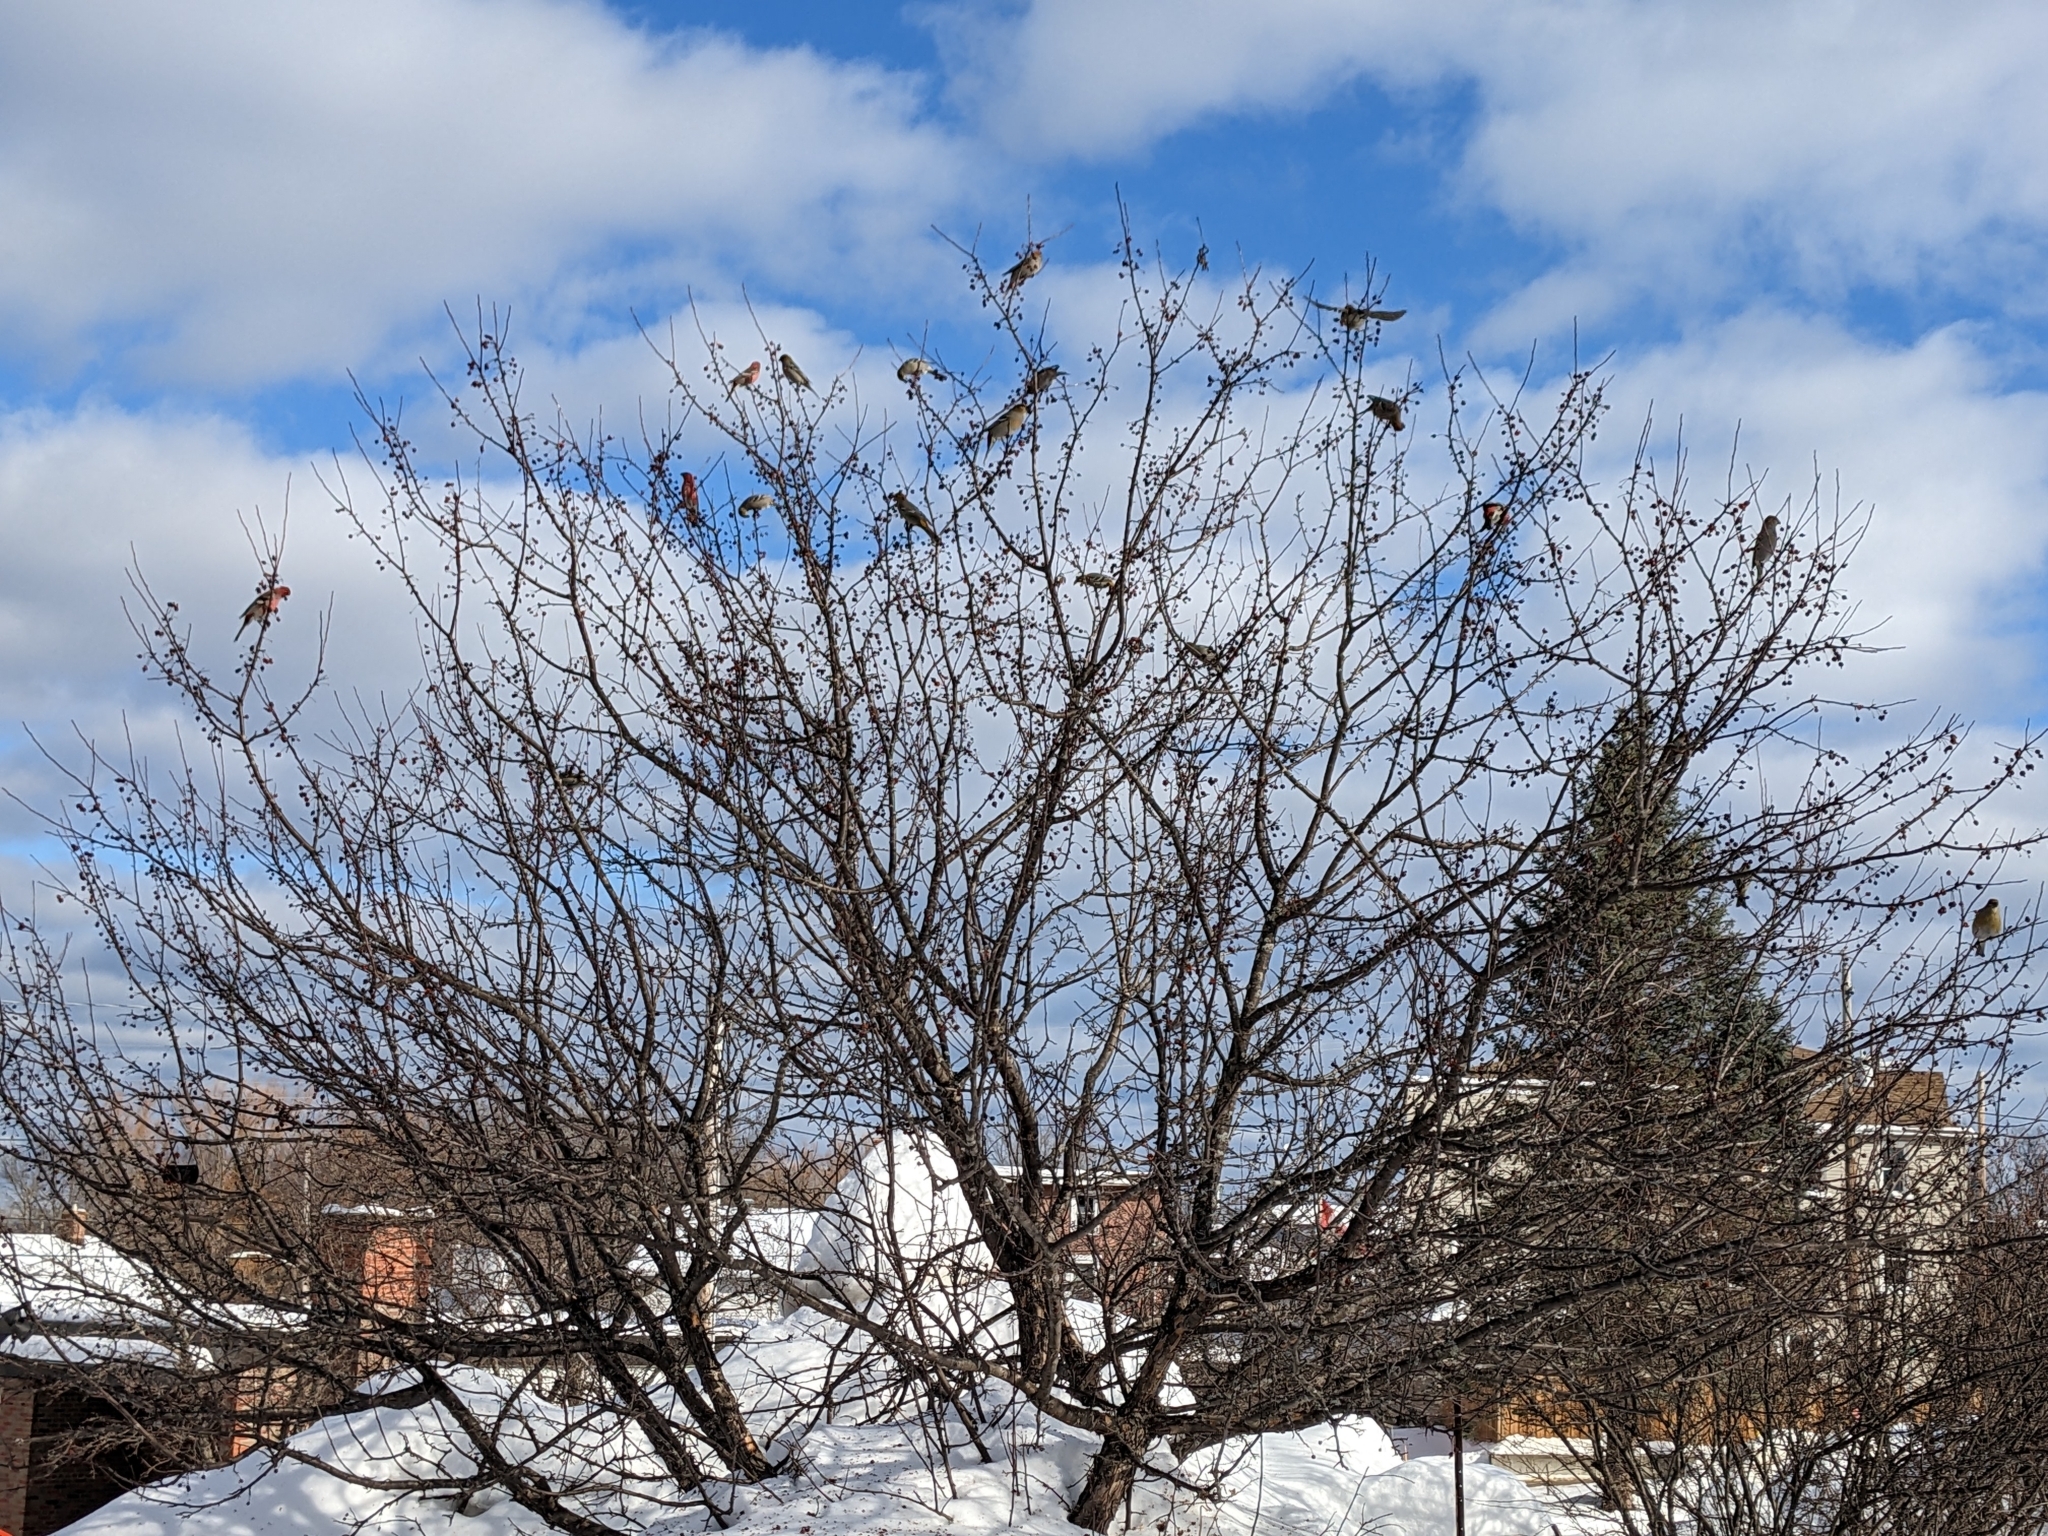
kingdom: Animalia
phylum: Chordata
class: Aves
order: Passeriformes
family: Fringillidae
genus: Pinicola
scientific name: Pinicola enucleator
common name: Pine grosbeak
